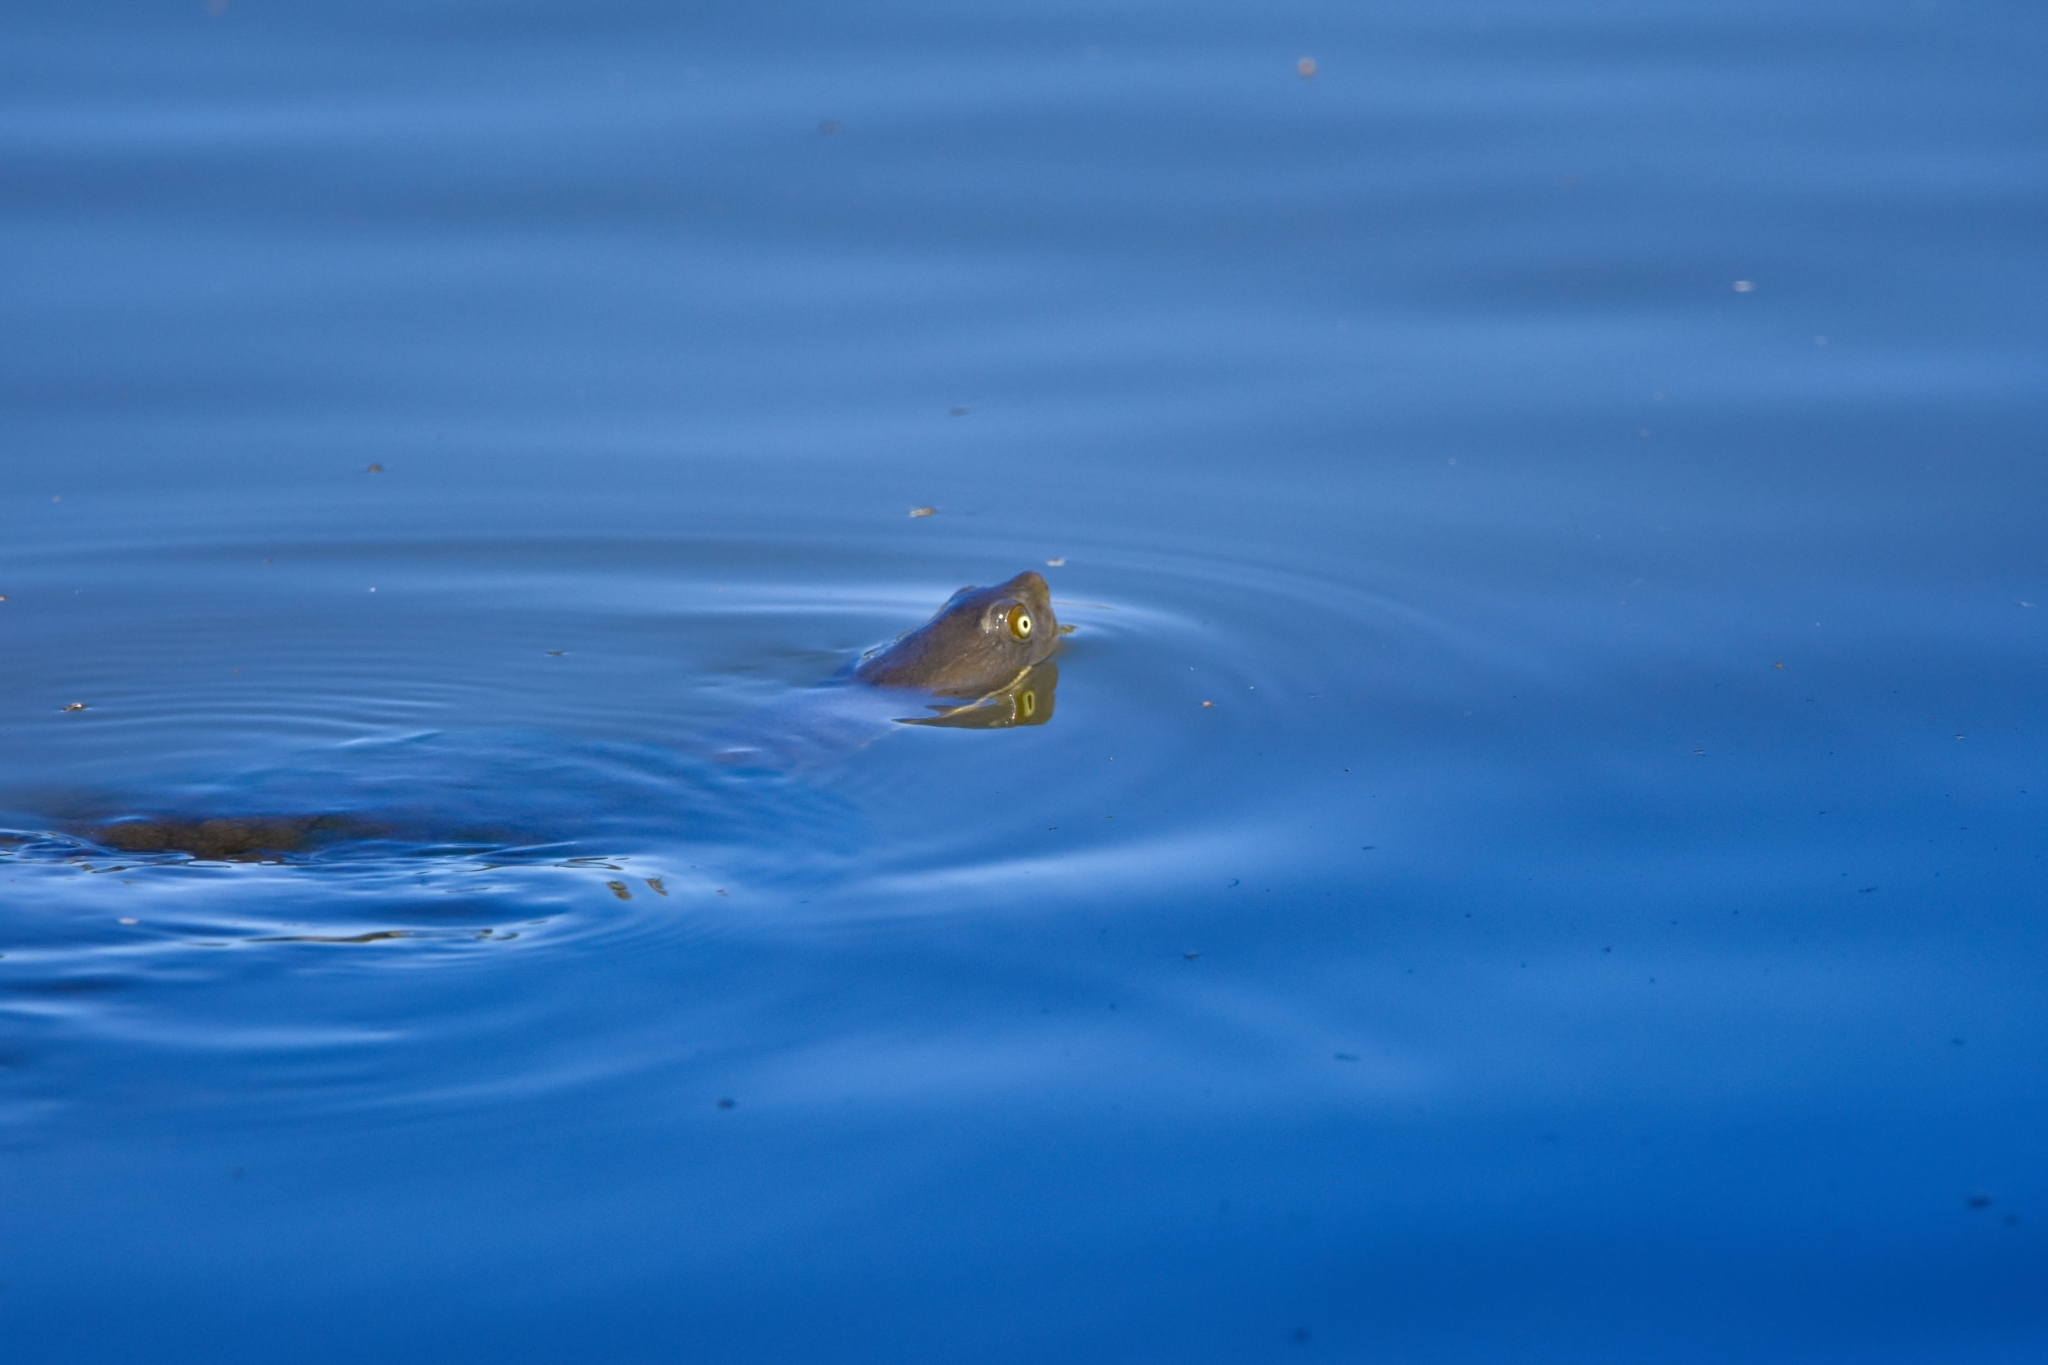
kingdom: Animalia
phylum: Chordata
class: Testudines
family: Chelidae
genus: Emydura
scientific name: Emydura macquarii
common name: Murray river turtle
